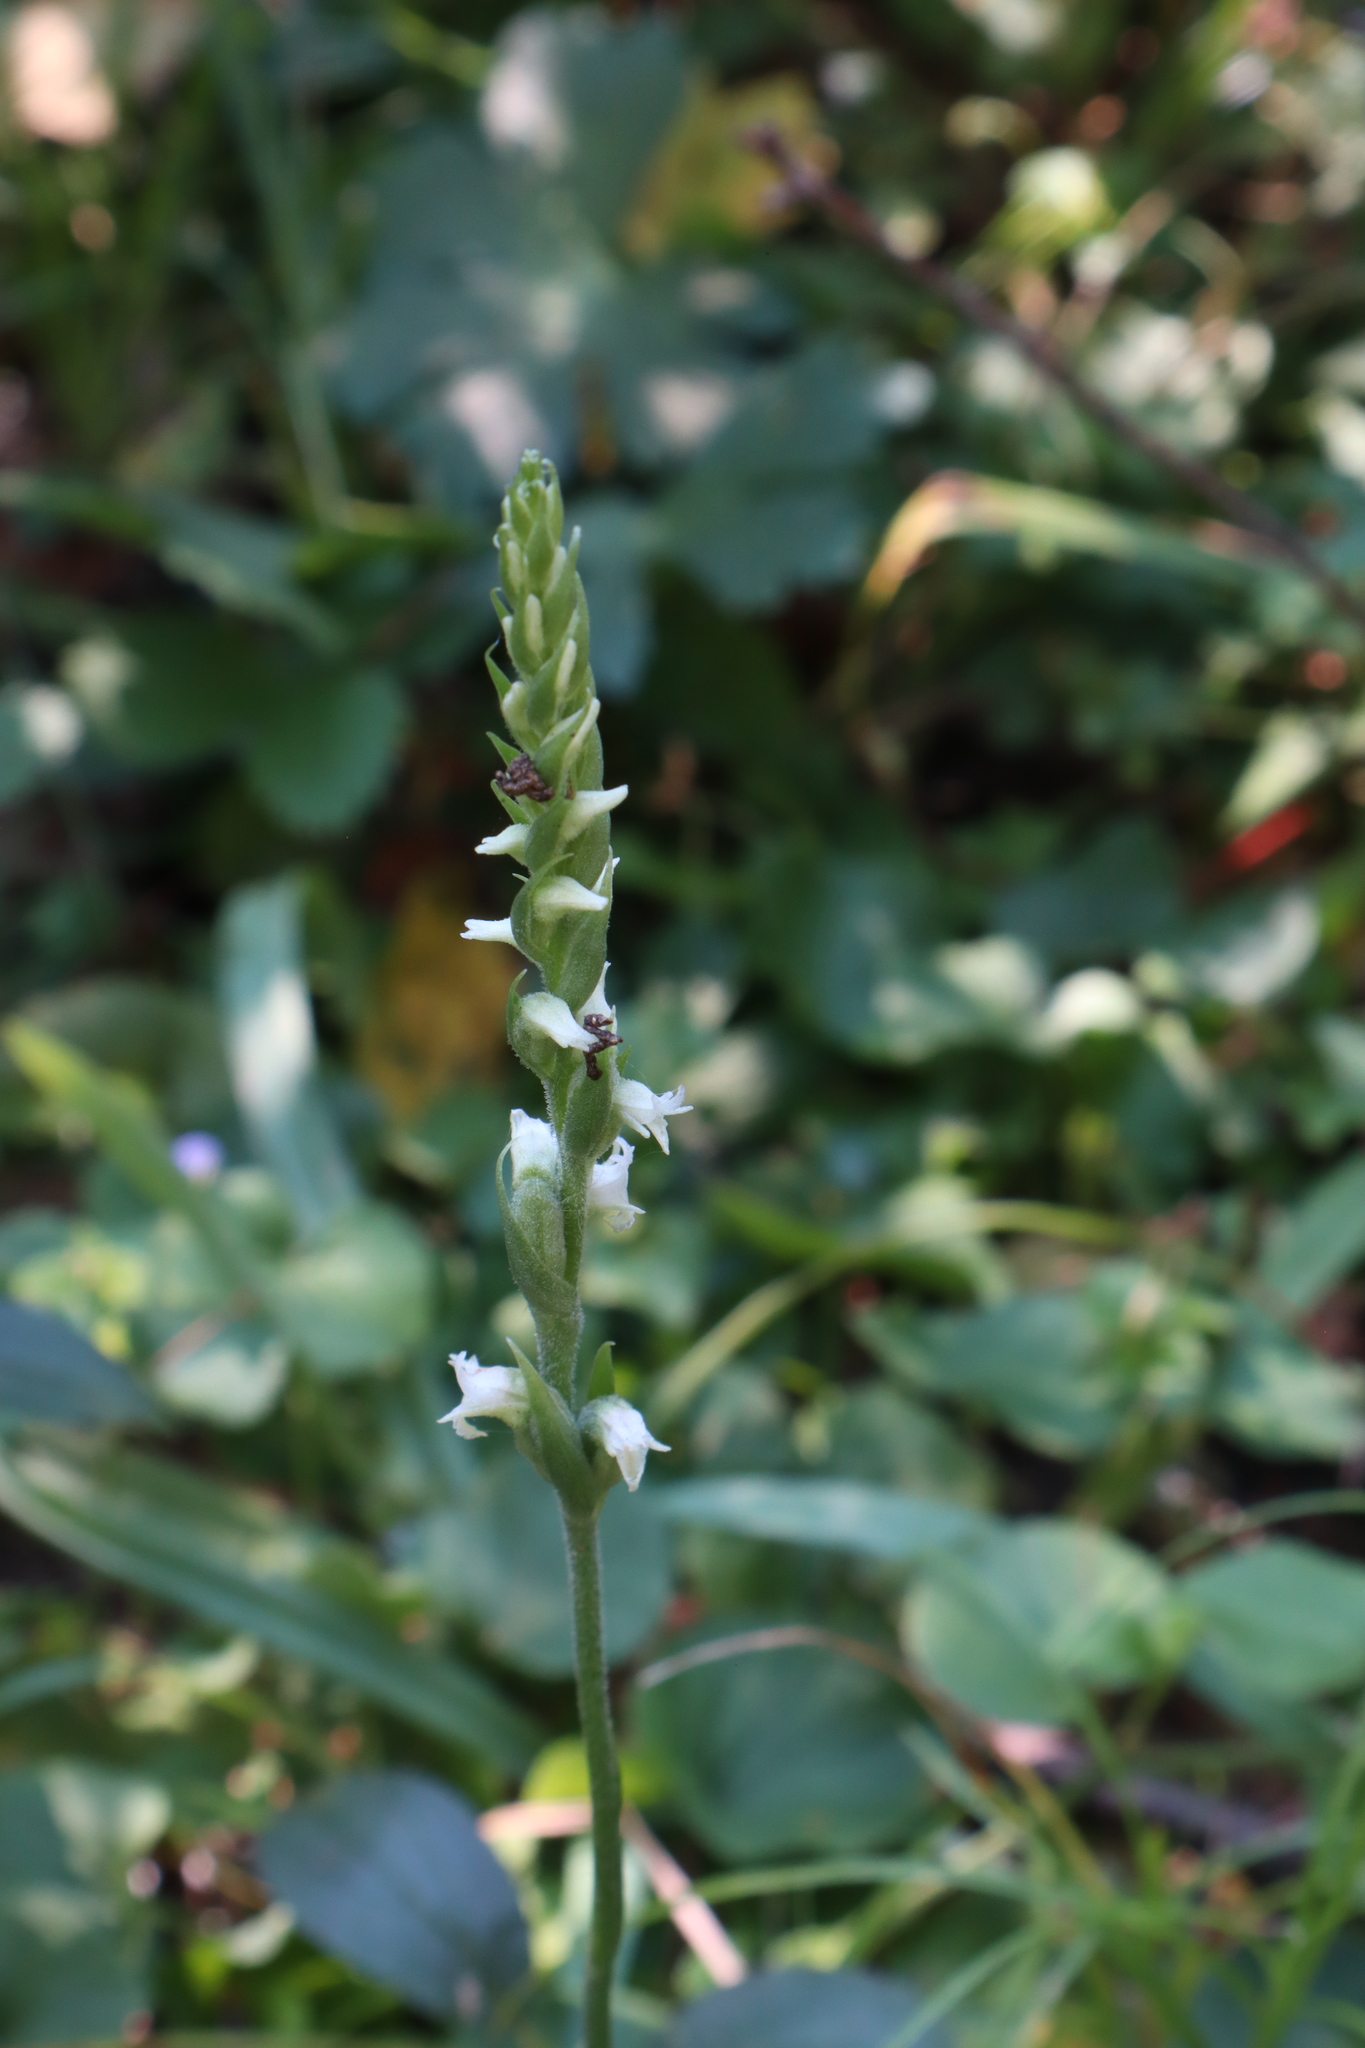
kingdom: Plantae
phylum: Tracheophyta
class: Liliopsida
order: Asparagales
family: Orchidaceae
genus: Spiranthes
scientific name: Spiranthes ovalis
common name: October ladies'-tresses
